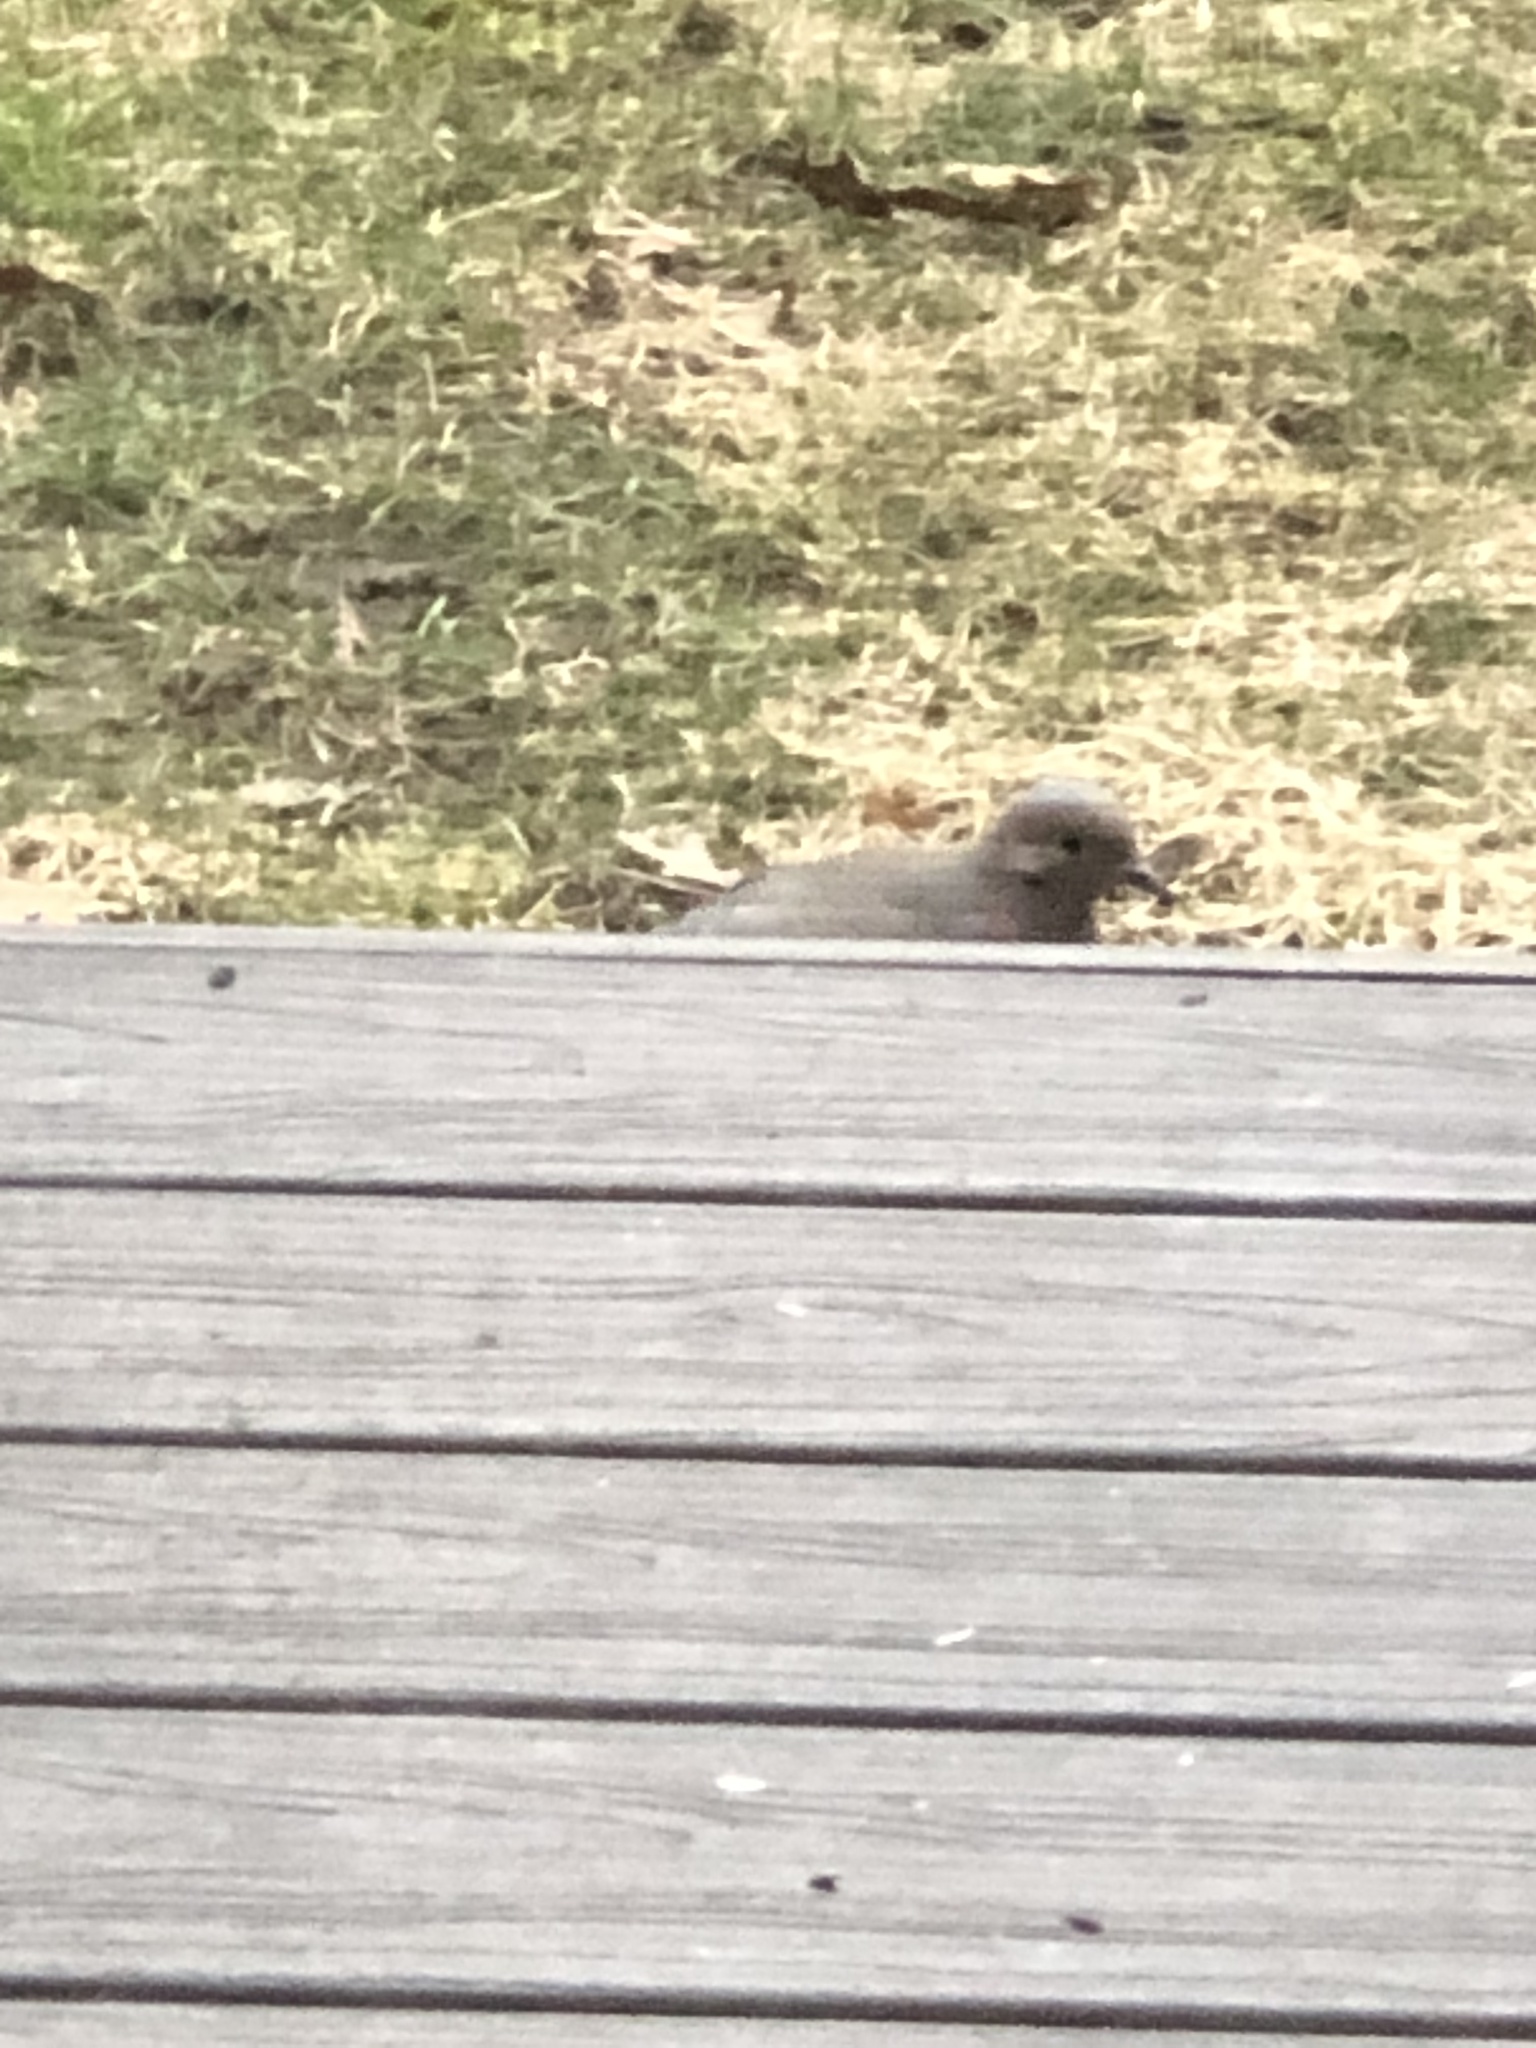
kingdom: Animalia
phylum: Chordata
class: Aves
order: Columbiformes
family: Columbidae
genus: Zenaida
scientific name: Zenaida macroura
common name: Mourning dove
